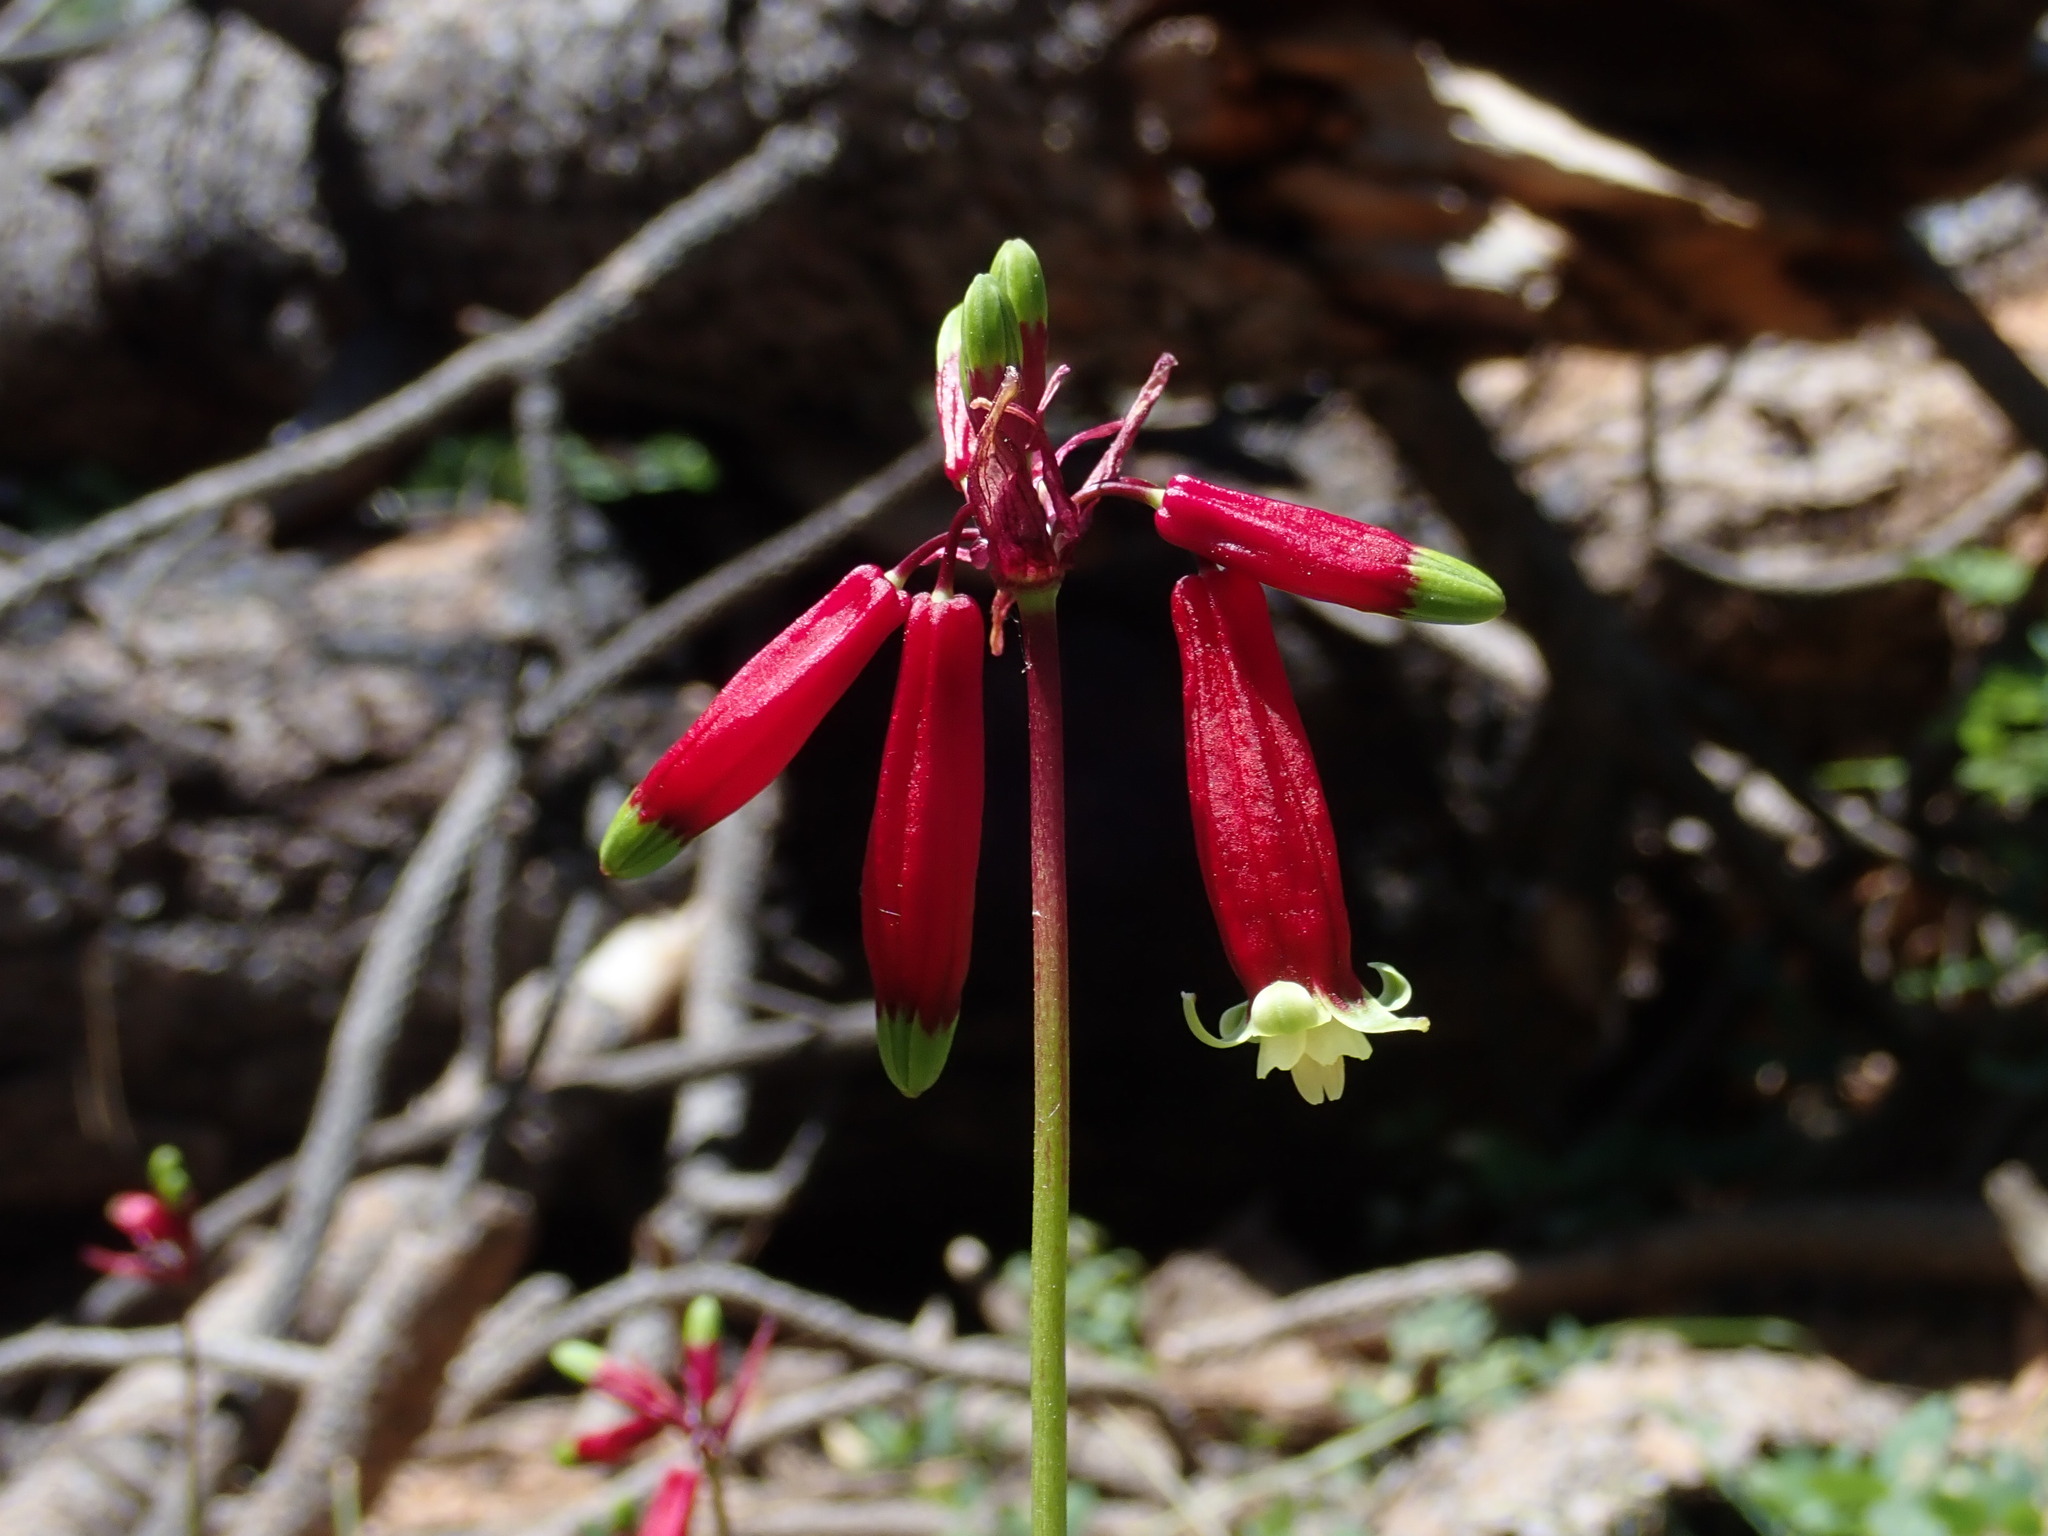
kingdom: Plantae
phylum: Tracheophyta
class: Liliopsida
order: Asparagales
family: Asparagaceae
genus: Dichelostemma
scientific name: Dichelostemma ida-maia
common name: Firecracker-flower
